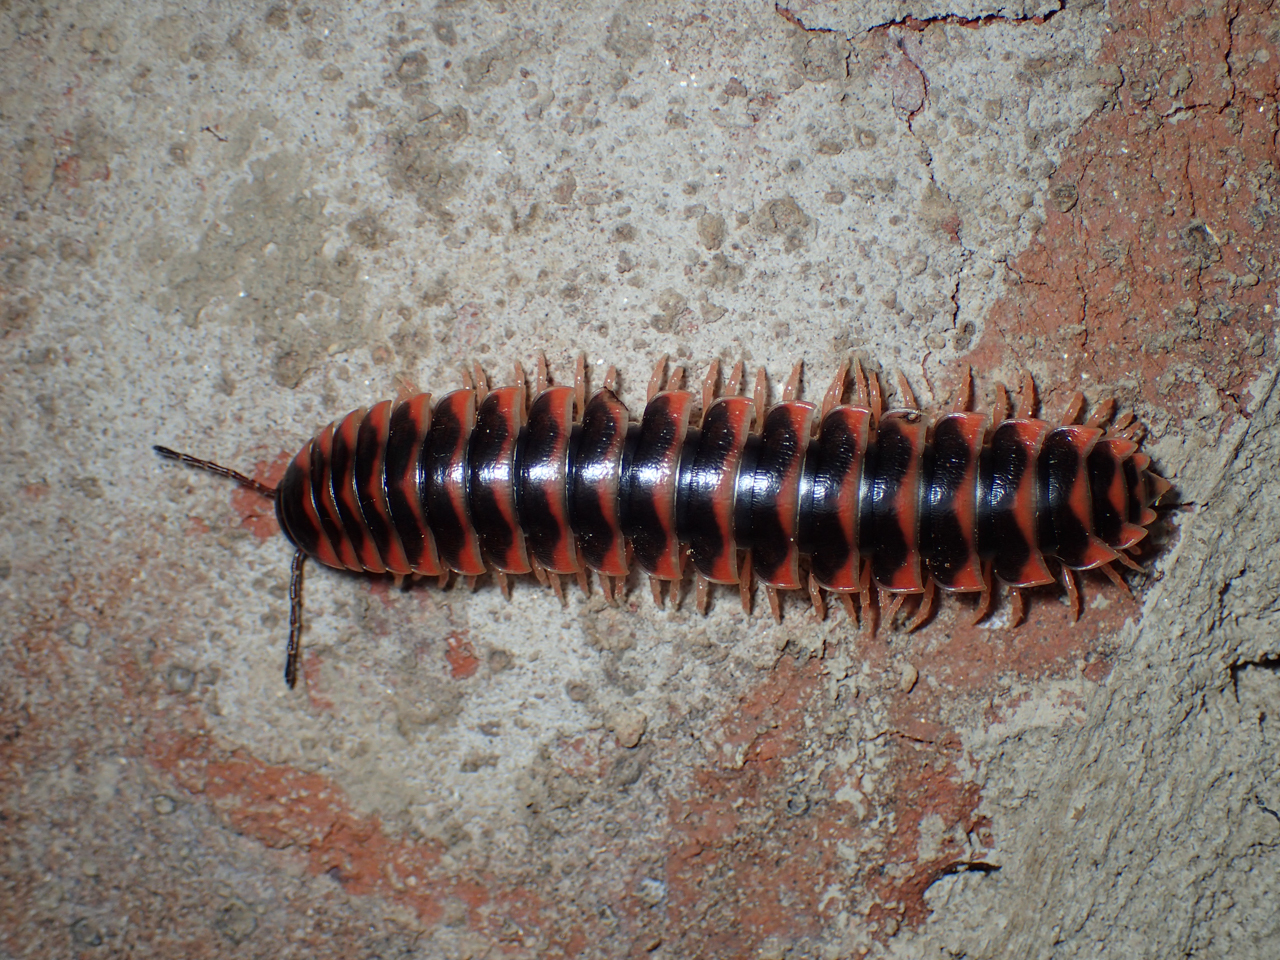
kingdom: Animalia
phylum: Arthropoda
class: Diplopoda
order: Polydesmida
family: Xystodesmidae
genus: Cherokia
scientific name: Cherokia georgiana
